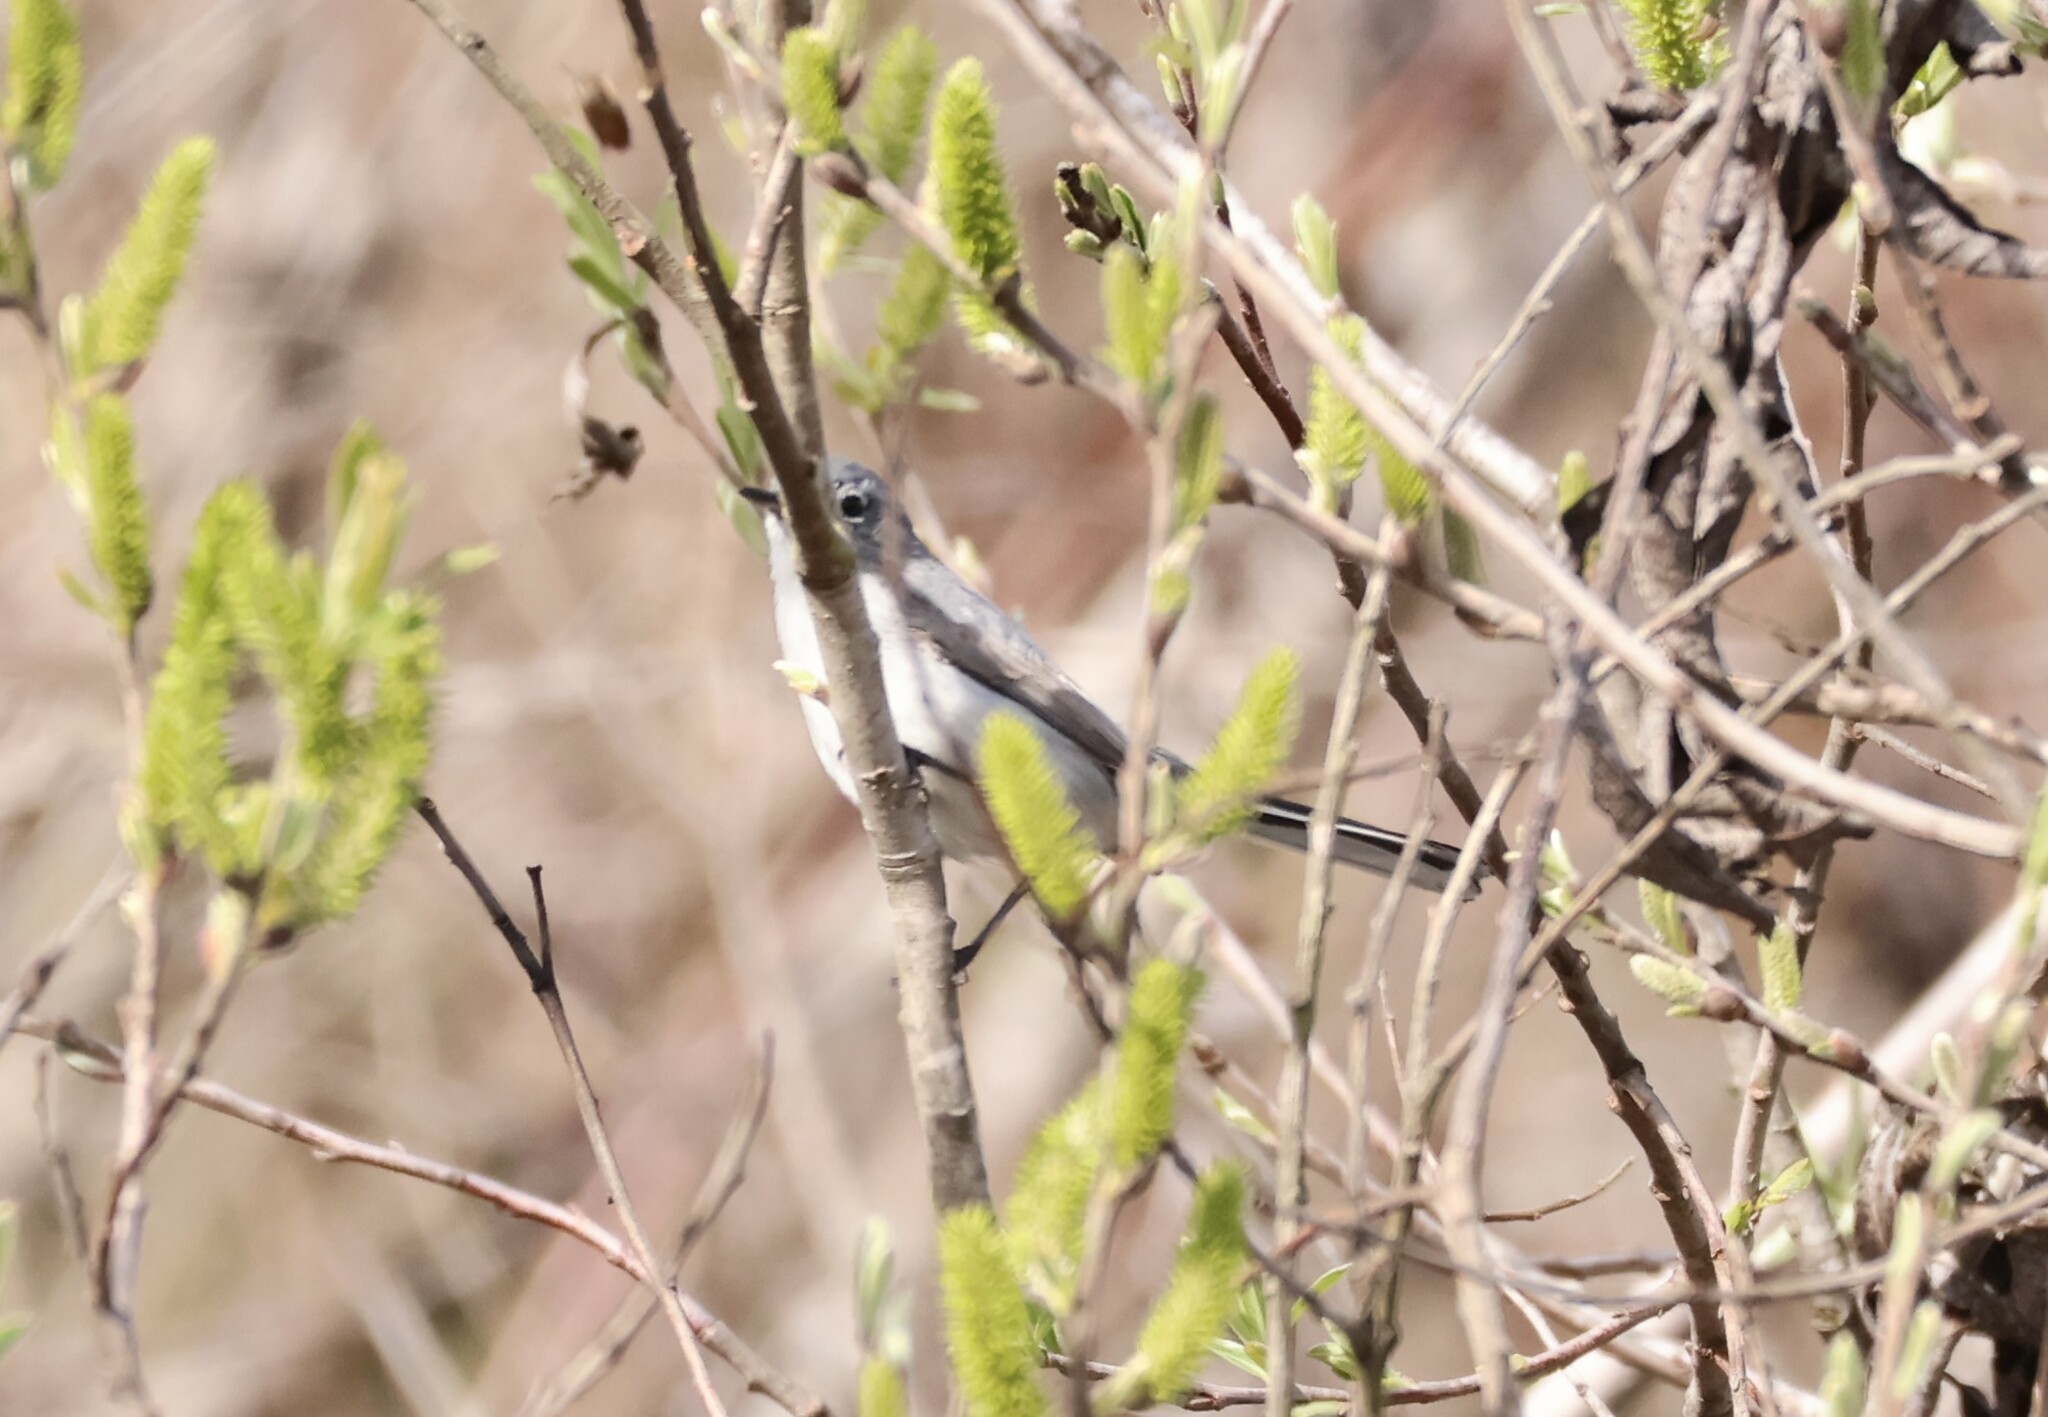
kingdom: Animalia
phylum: Chordata
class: Aves
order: Passeriformes
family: Polioptilidae
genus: Polioptila
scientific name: Polioptila caerulea
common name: Blue-gray gnatcatcher
